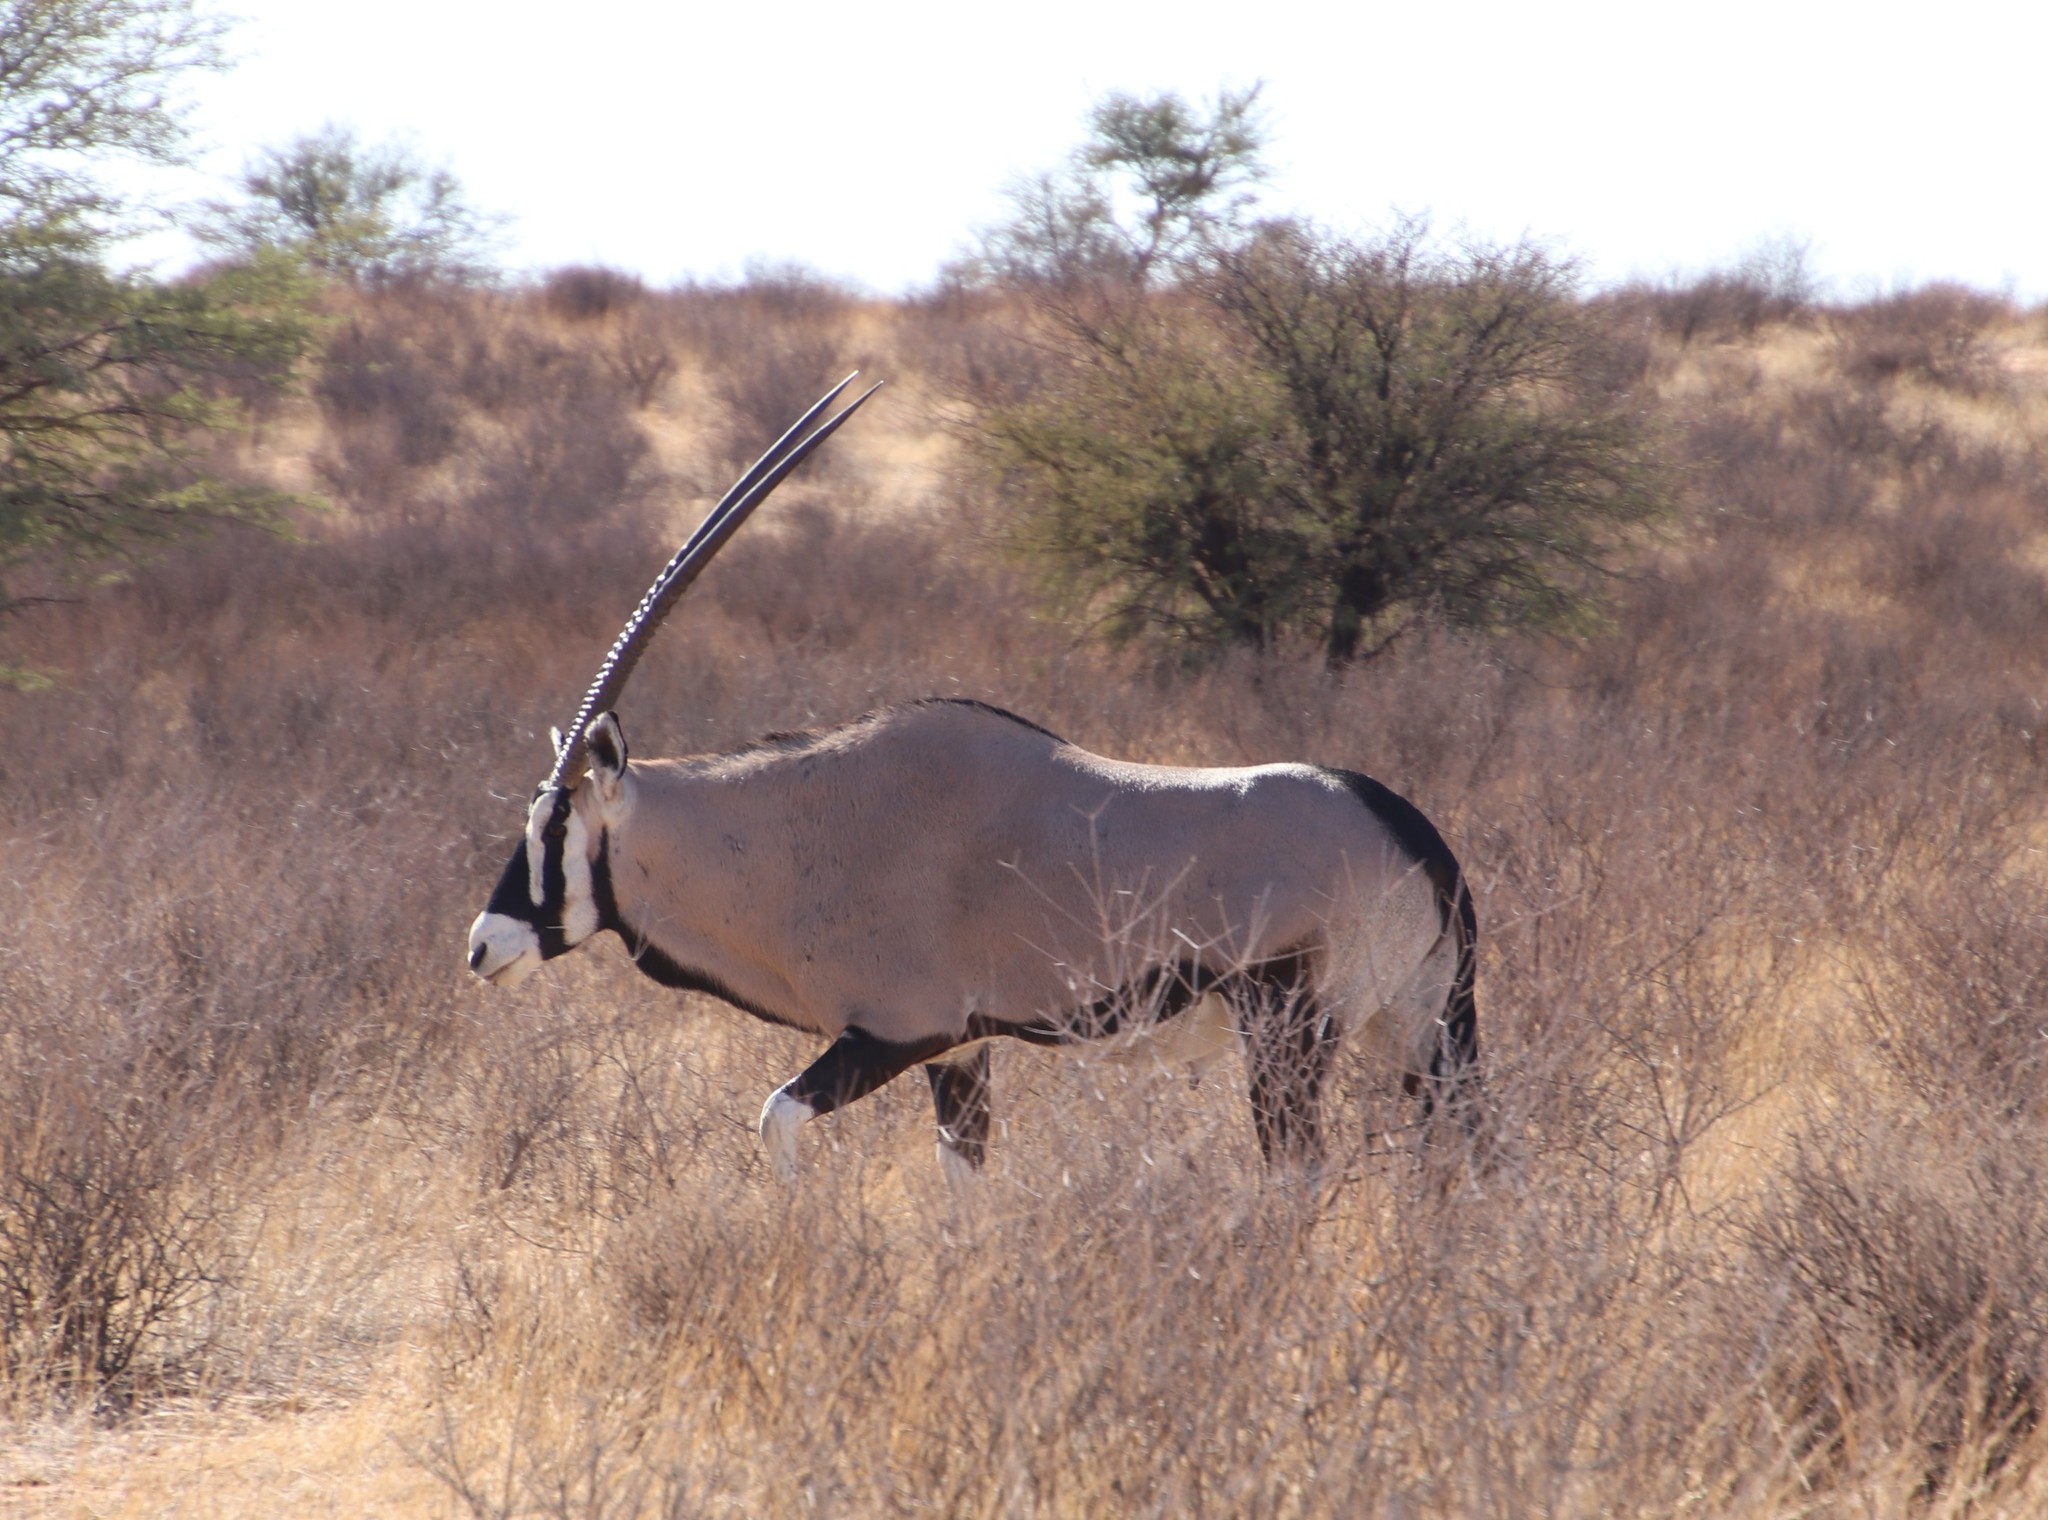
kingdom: Animalia
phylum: Chordata
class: Mammalia
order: Artiodactyla
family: Bovidae
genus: Oryx
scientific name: Oryx gazella
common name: Gemsbok
